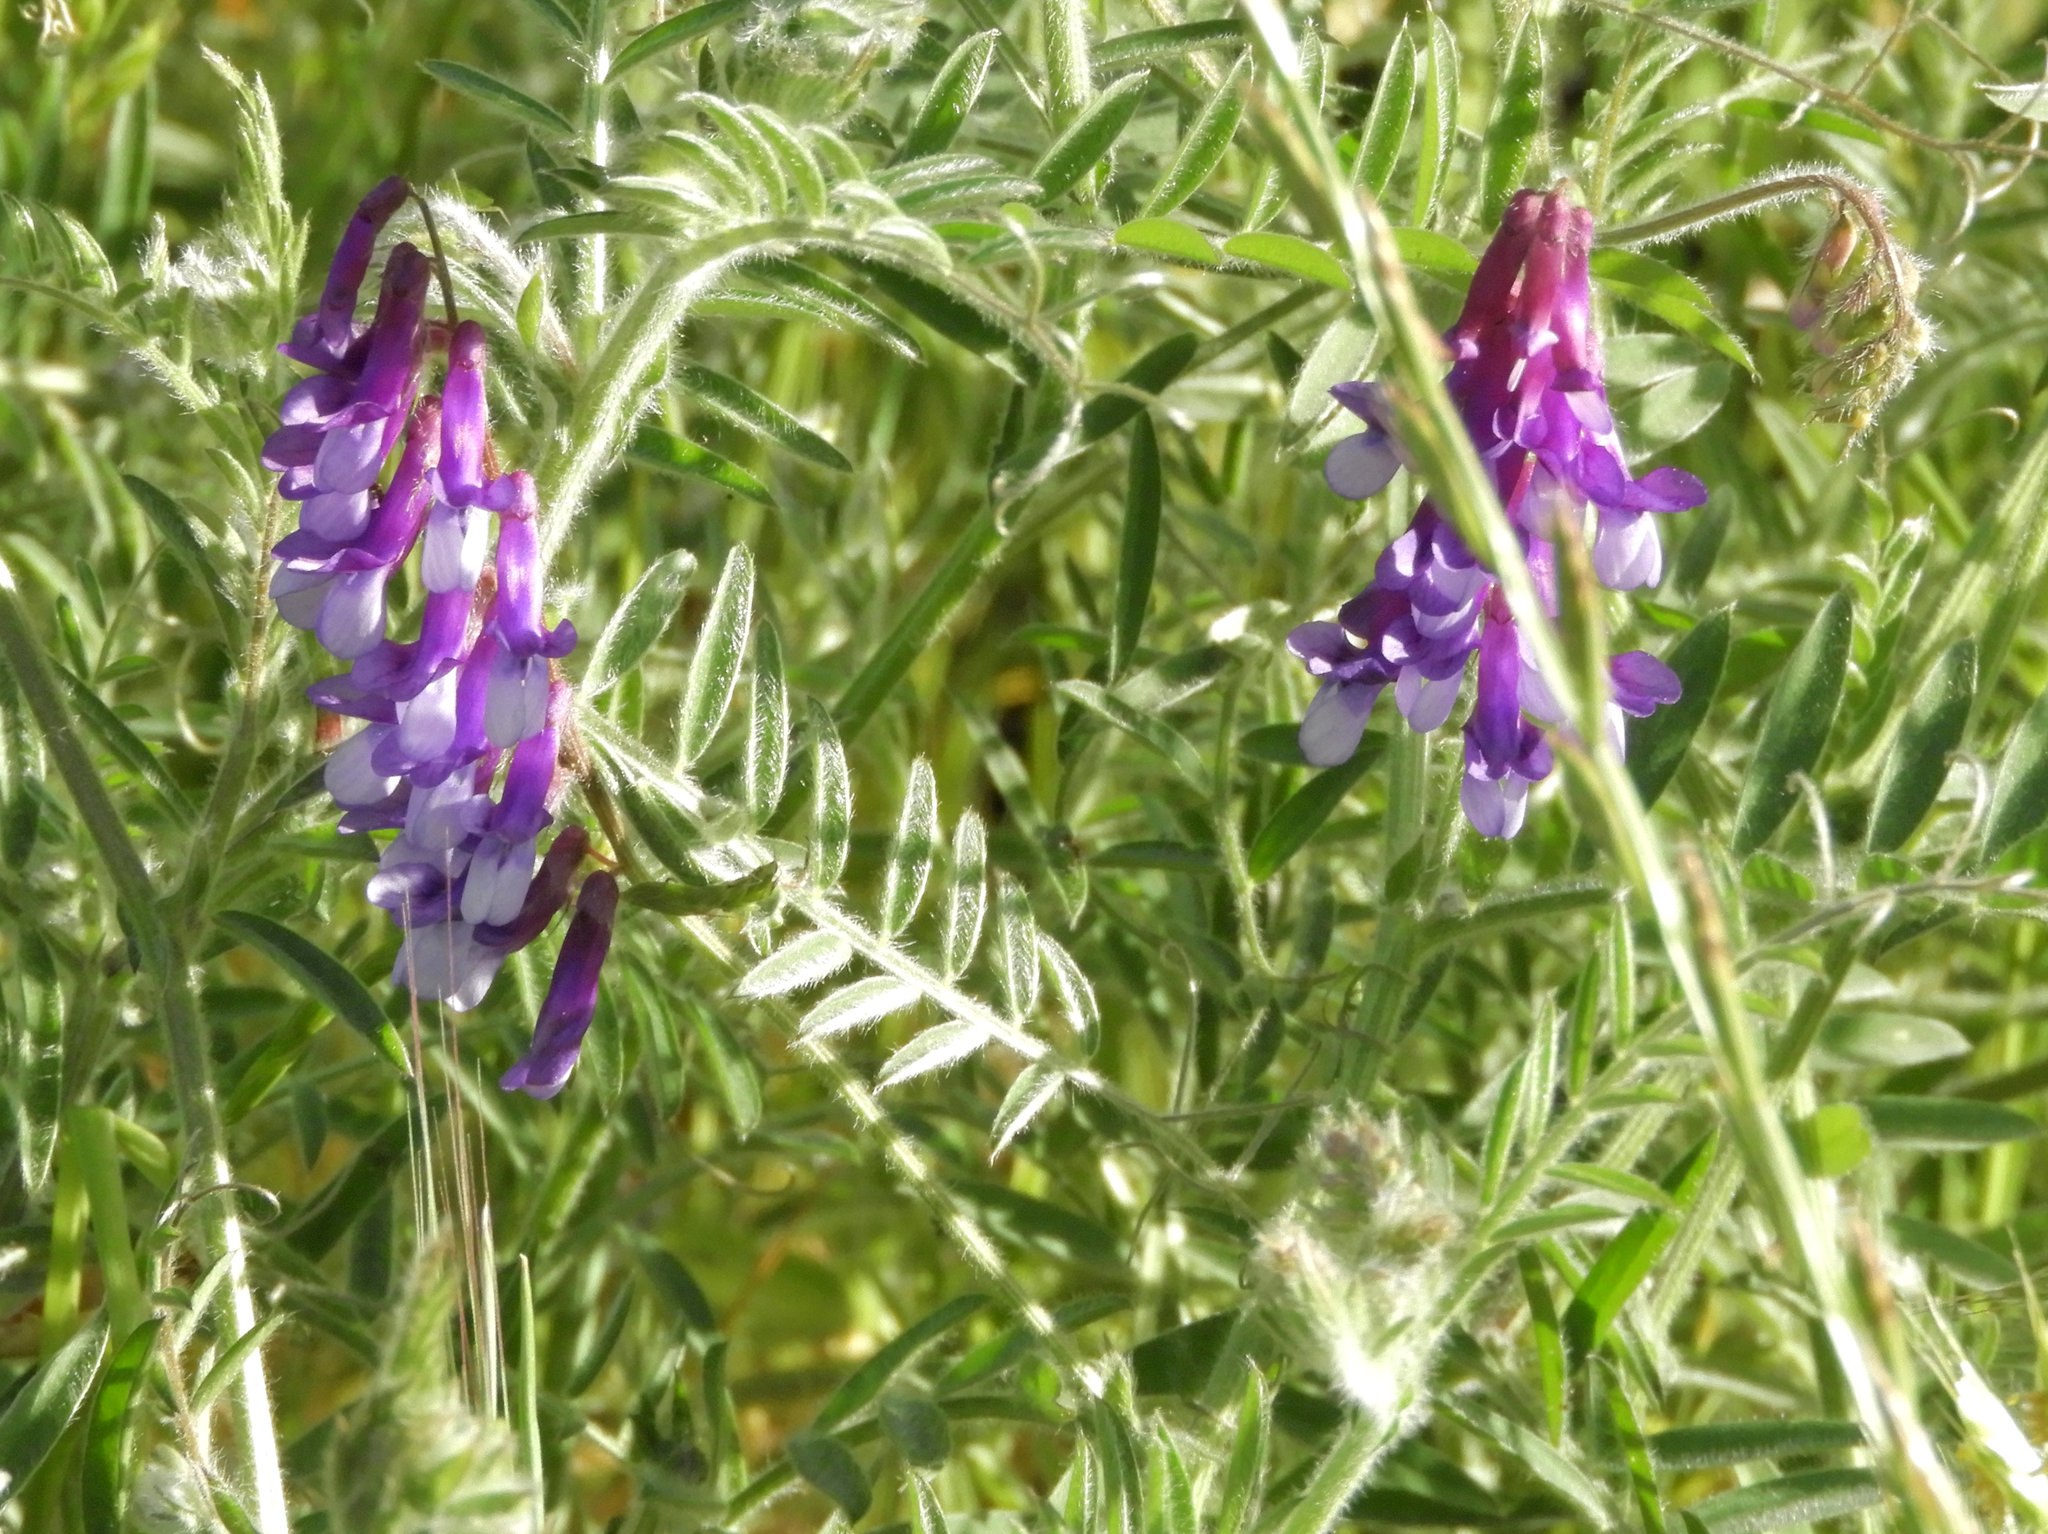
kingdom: Plantae
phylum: Tracheophyta
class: Magnoliopsida
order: Fabales
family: Fabaceae
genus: Vicia
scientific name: Vicia villosa
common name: Fodder vetch
